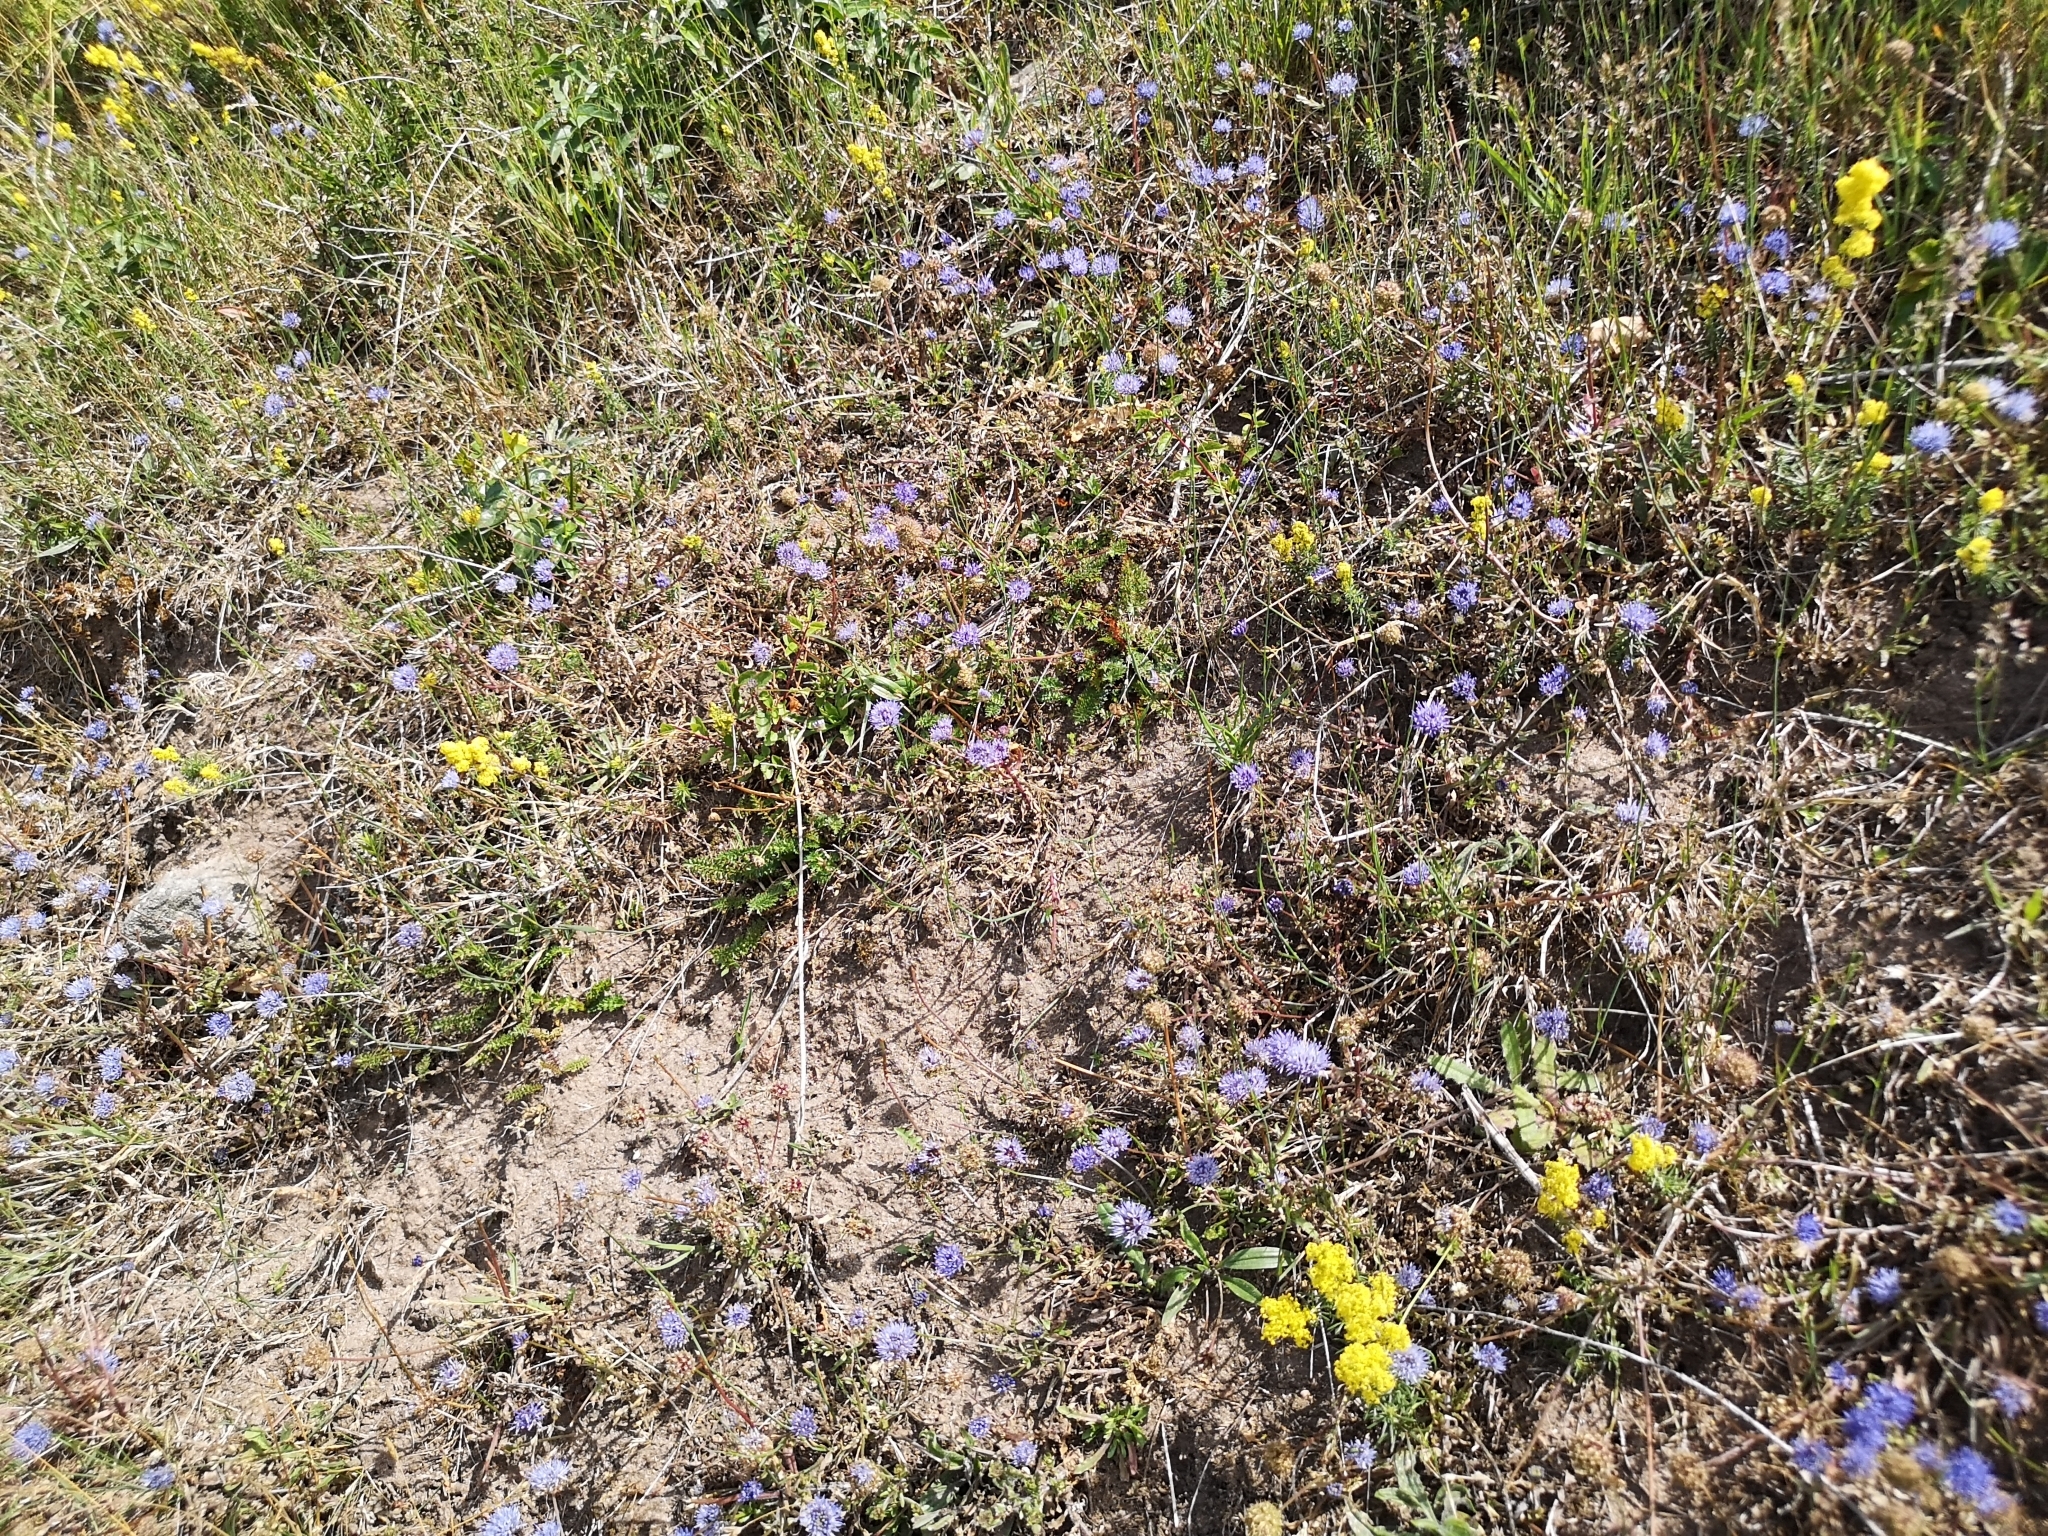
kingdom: Plantae
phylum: Tracheophyta
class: Magnoliopsida
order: Asterales
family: Campanulaceae
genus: Jasione
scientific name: Jasione montana
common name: Sheep's-bit
